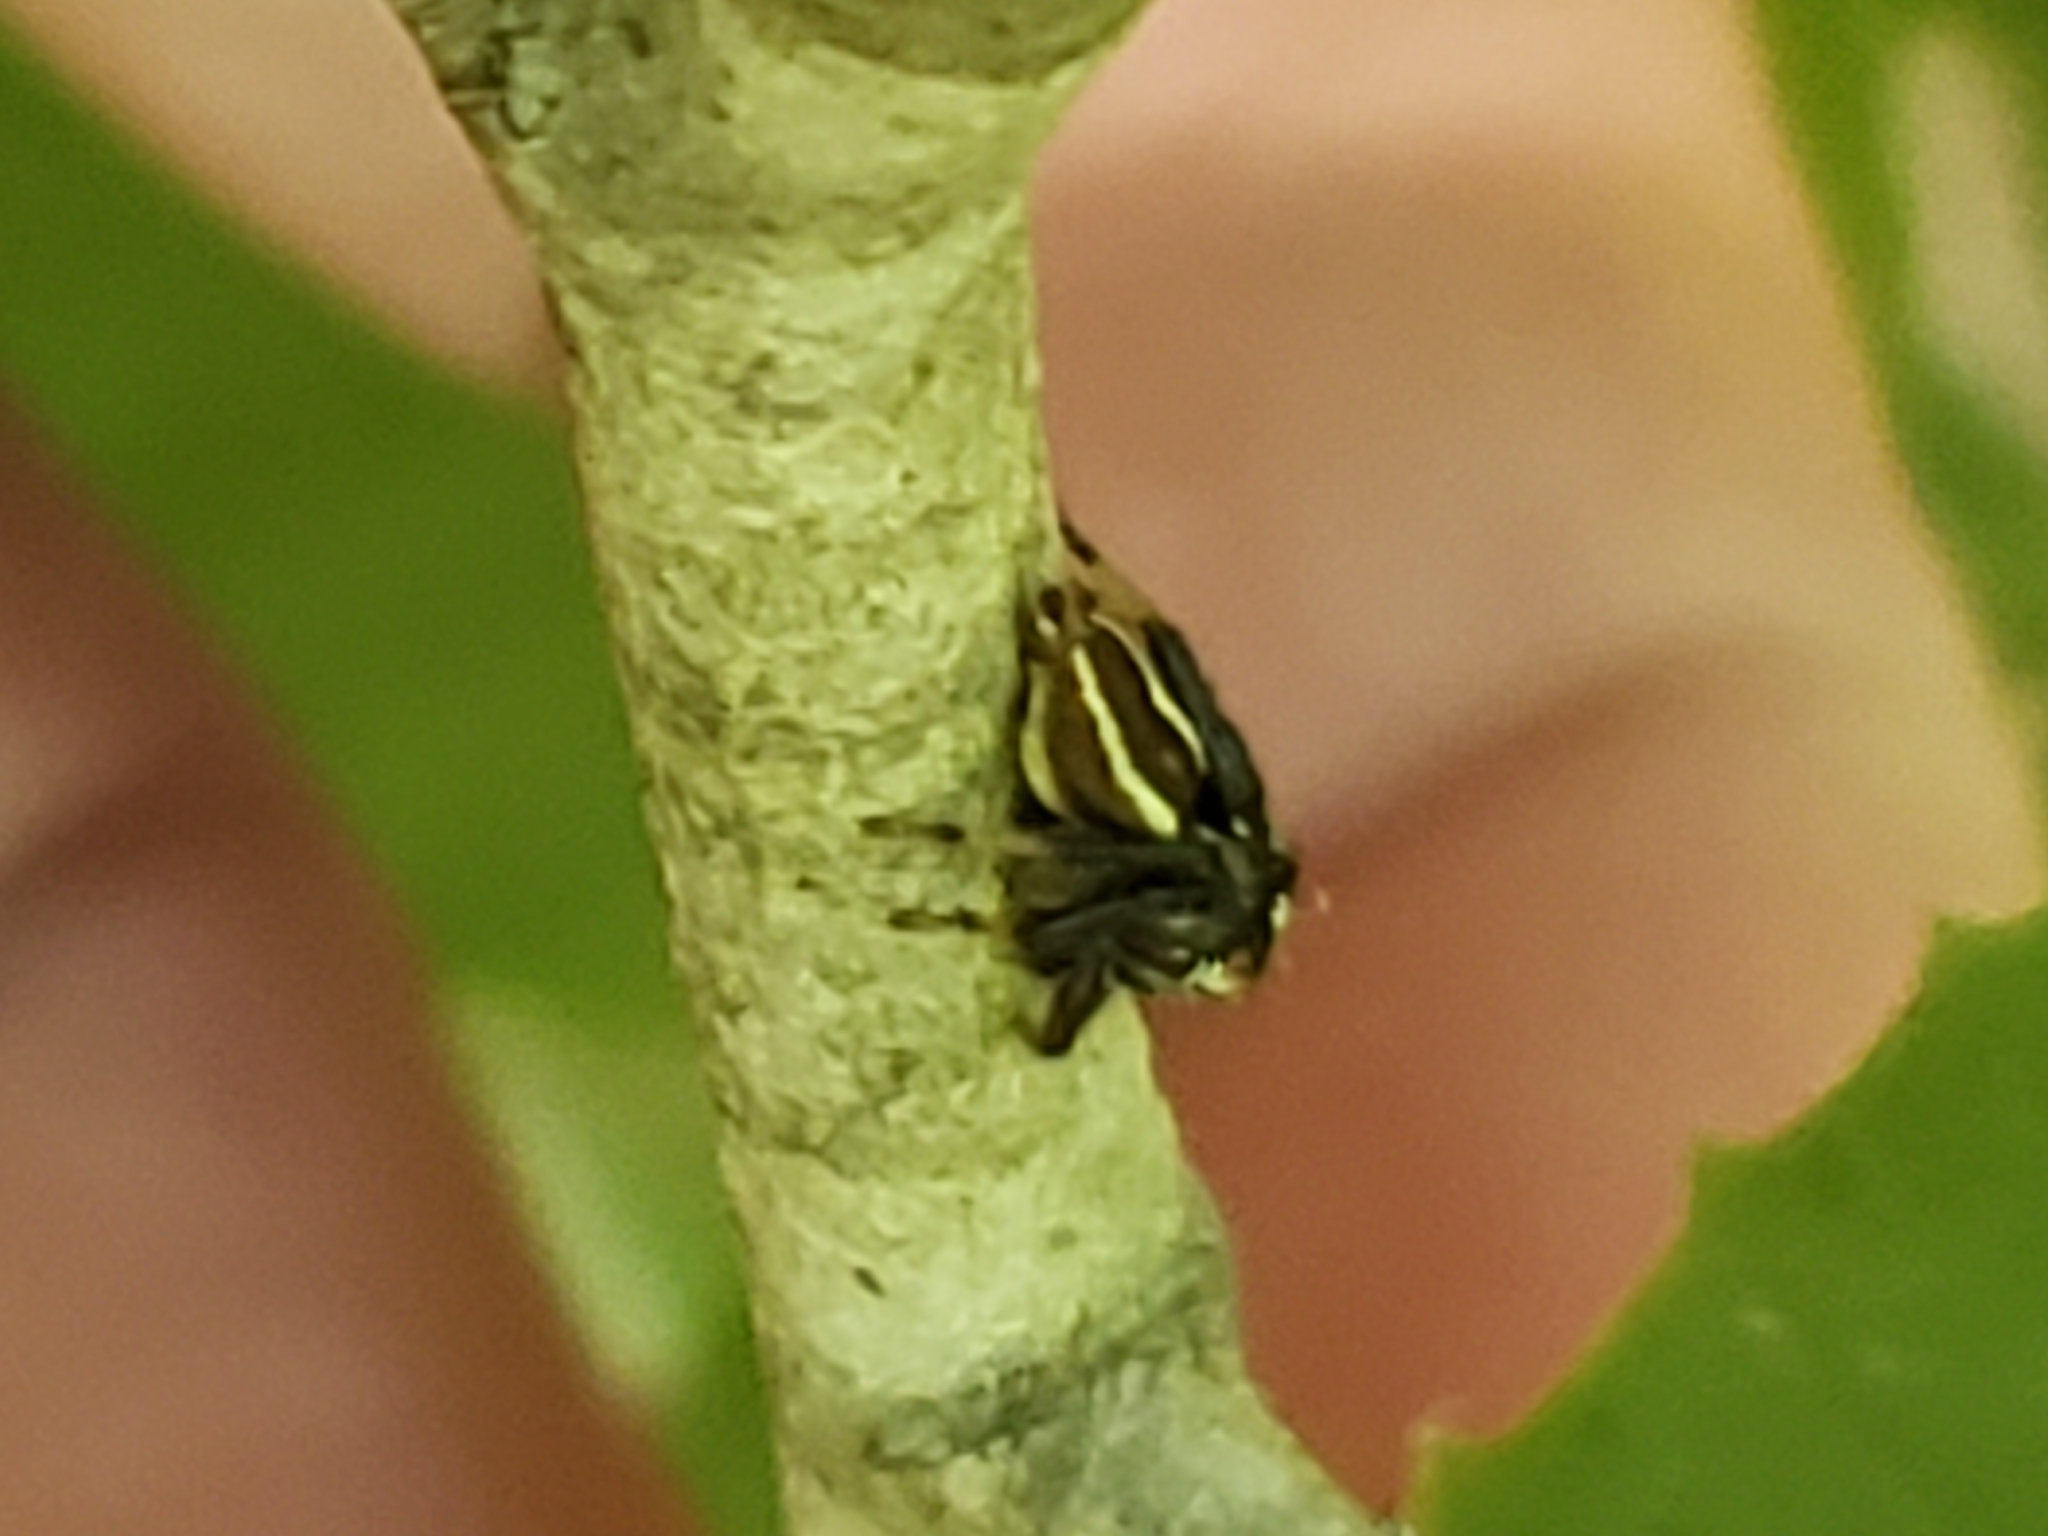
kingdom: Animalia
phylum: Arthropoda
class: Arachnida
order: Araneae
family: Salticidae
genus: Colonus
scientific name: Colonus sylvanus
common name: Jumping spiders
